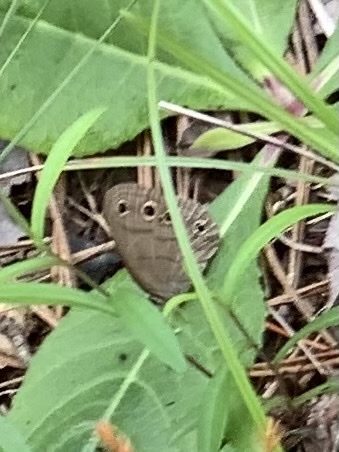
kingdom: Animalia
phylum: Arthropoda
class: Insecta
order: Lepidoptera
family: Nymphalidae
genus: Euptychia
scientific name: Euptychia cymela
